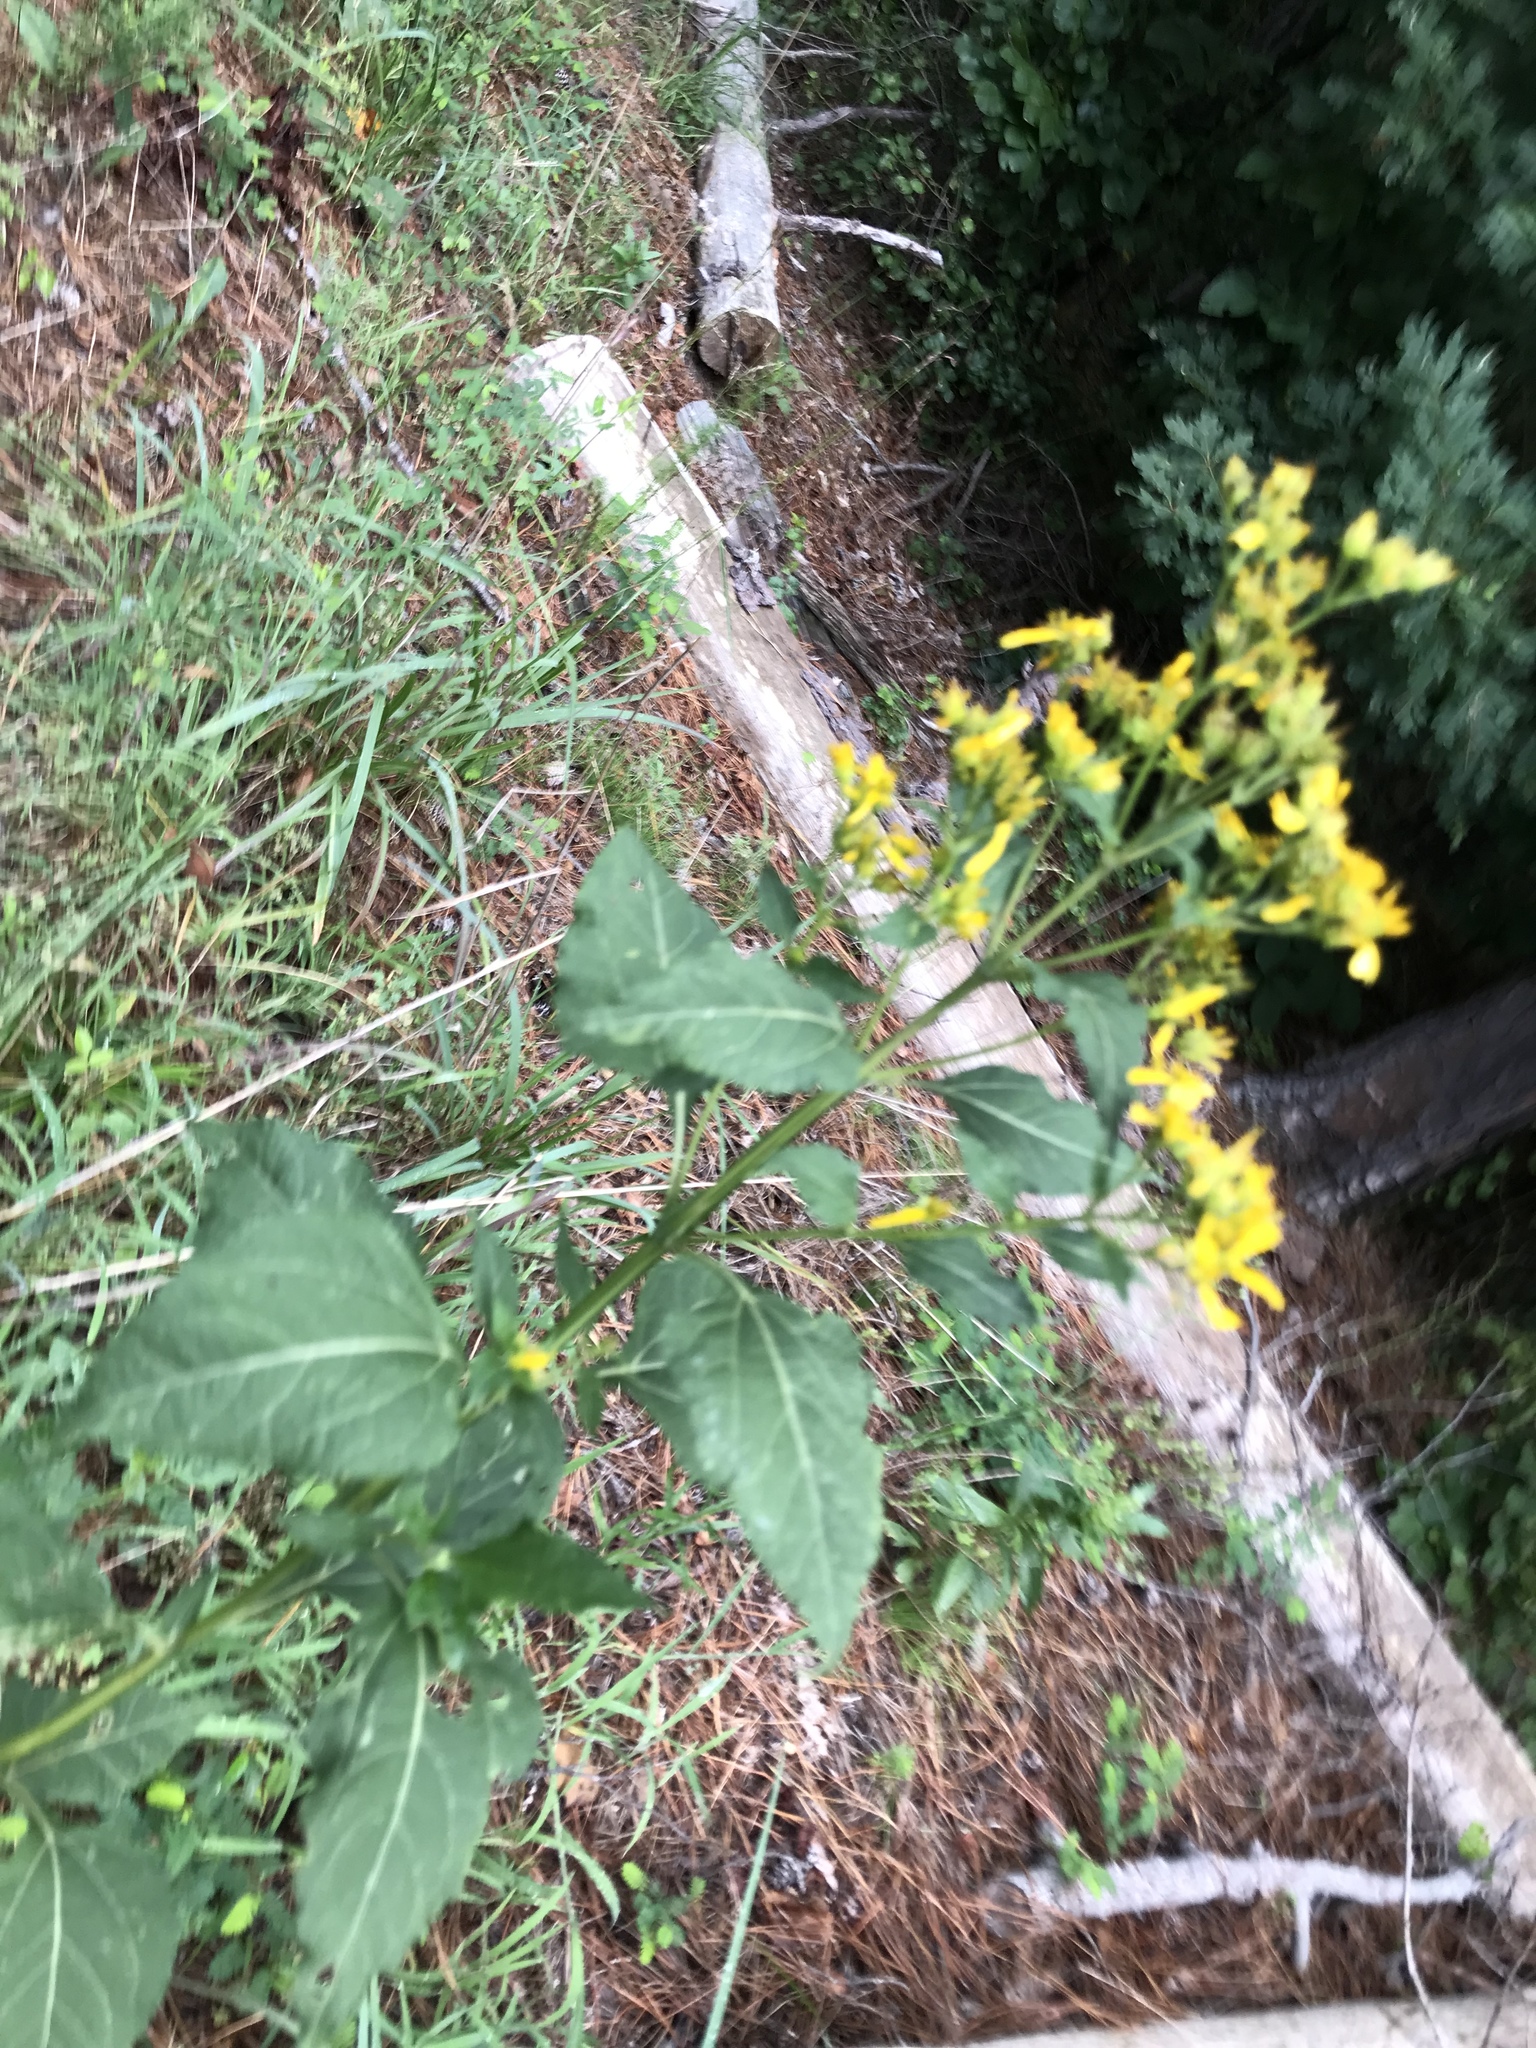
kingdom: Plantae
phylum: Tracheophyta
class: Magnoliopsida
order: Asterales
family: Asteraceae
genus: Verbesina
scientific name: Verbesina occidentalis
